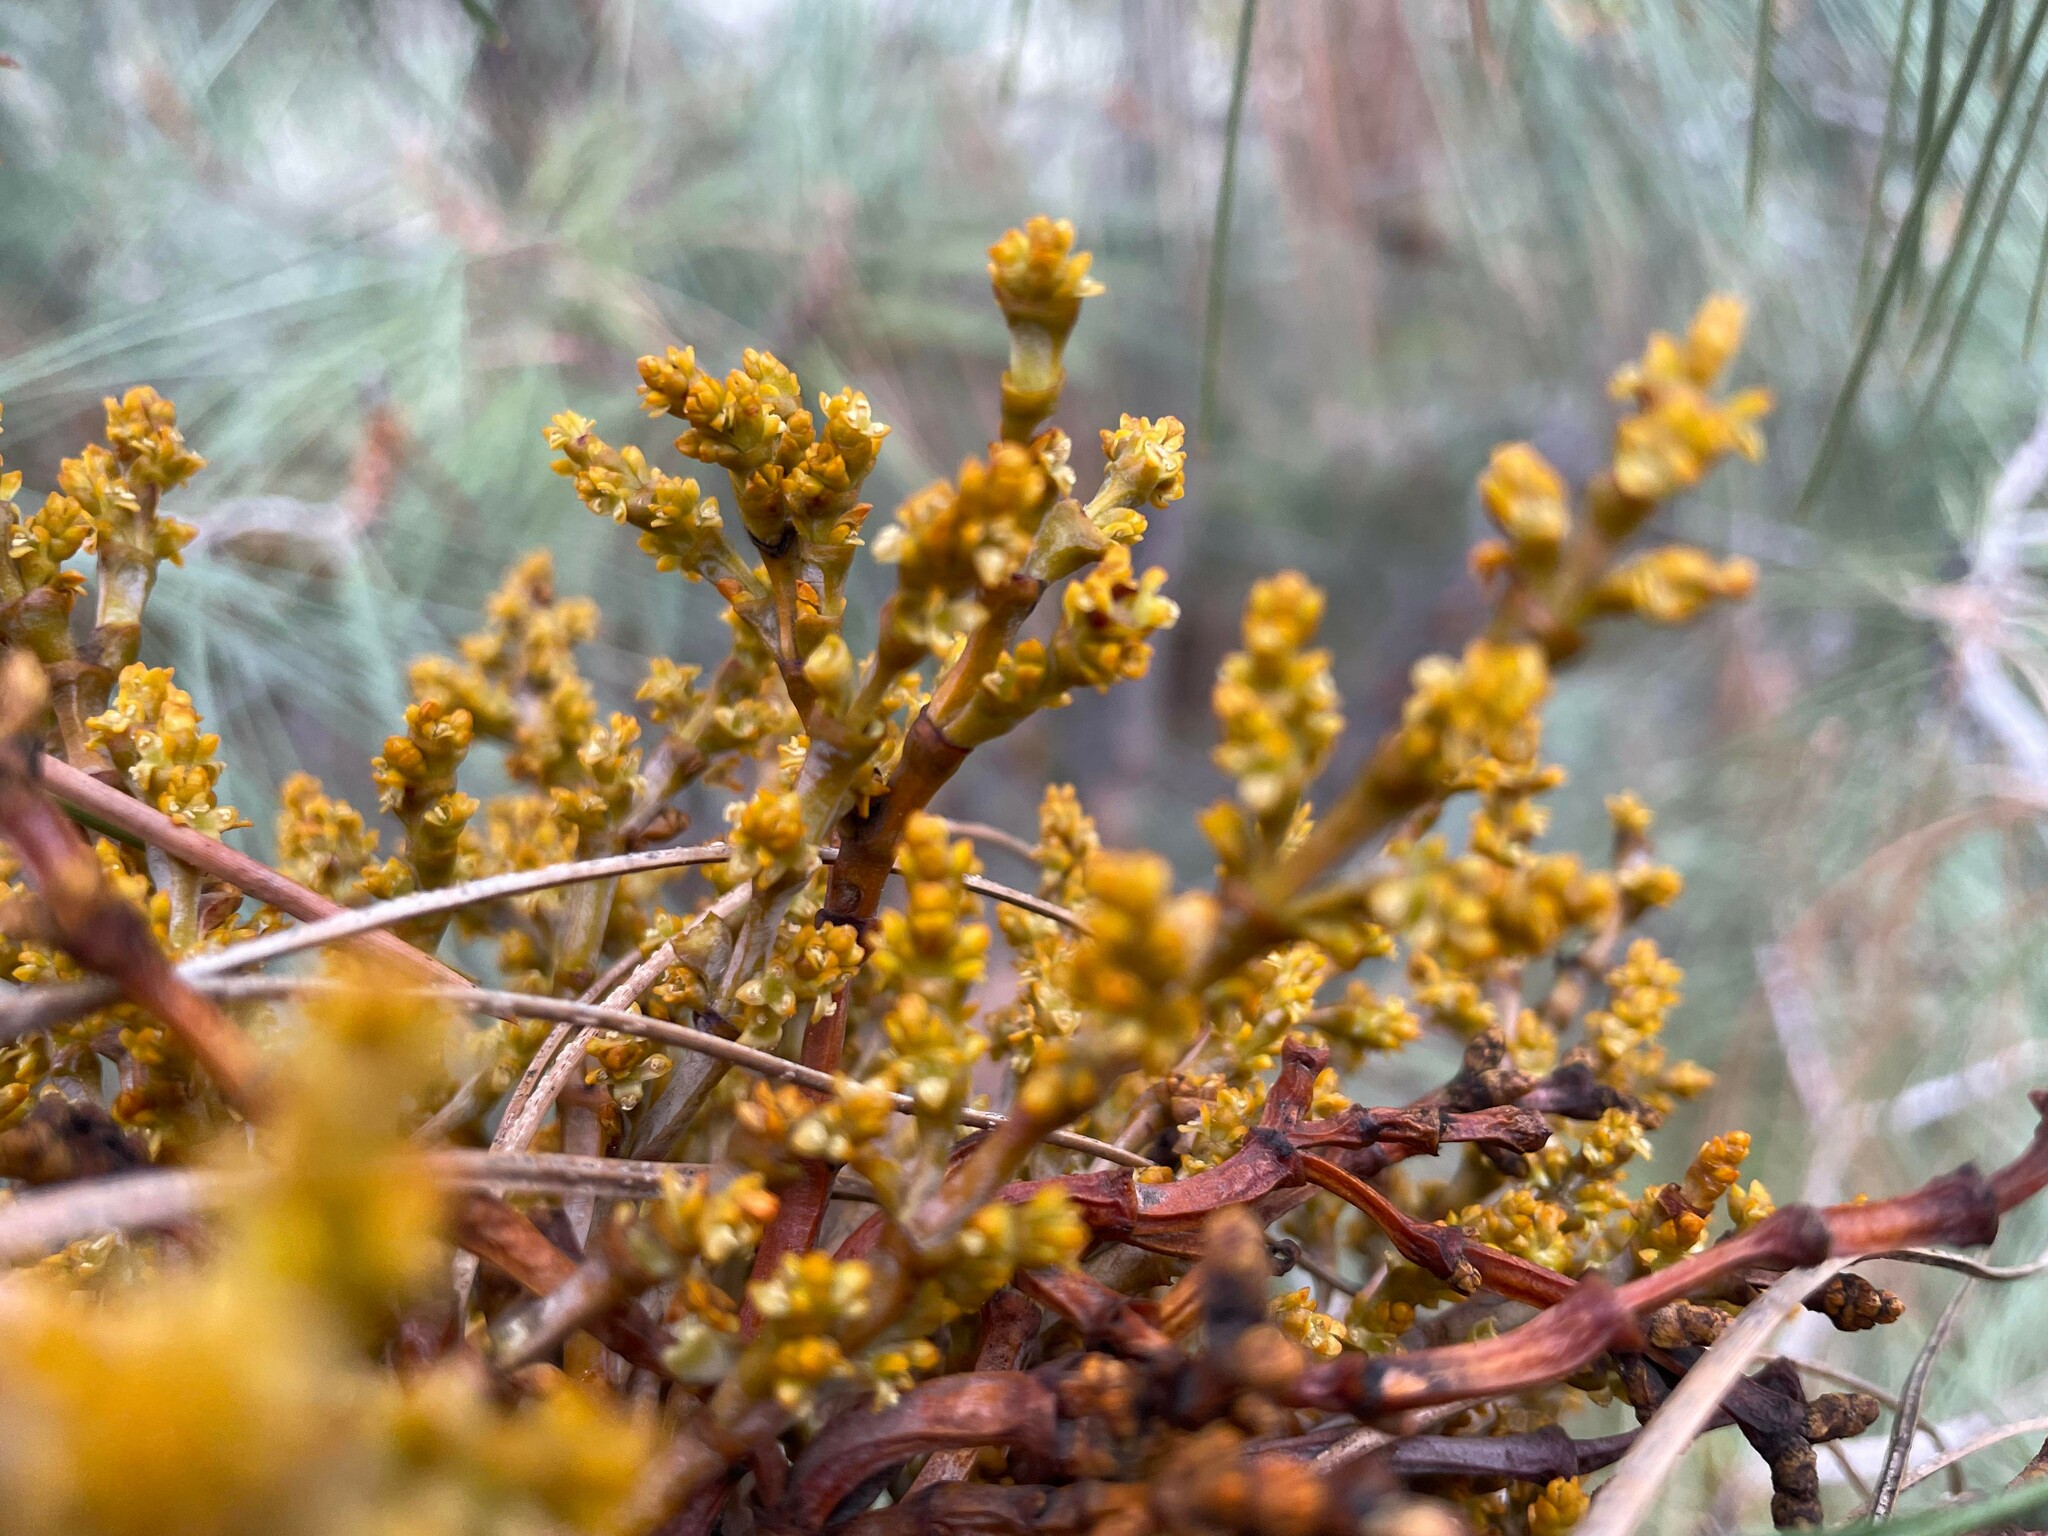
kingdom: Plantae
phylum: Tracheophyta
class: Magnoliopsida
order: Santalales
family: Viscaceae
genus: Arceuthobium
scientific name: Arceuthobium campylopodum
